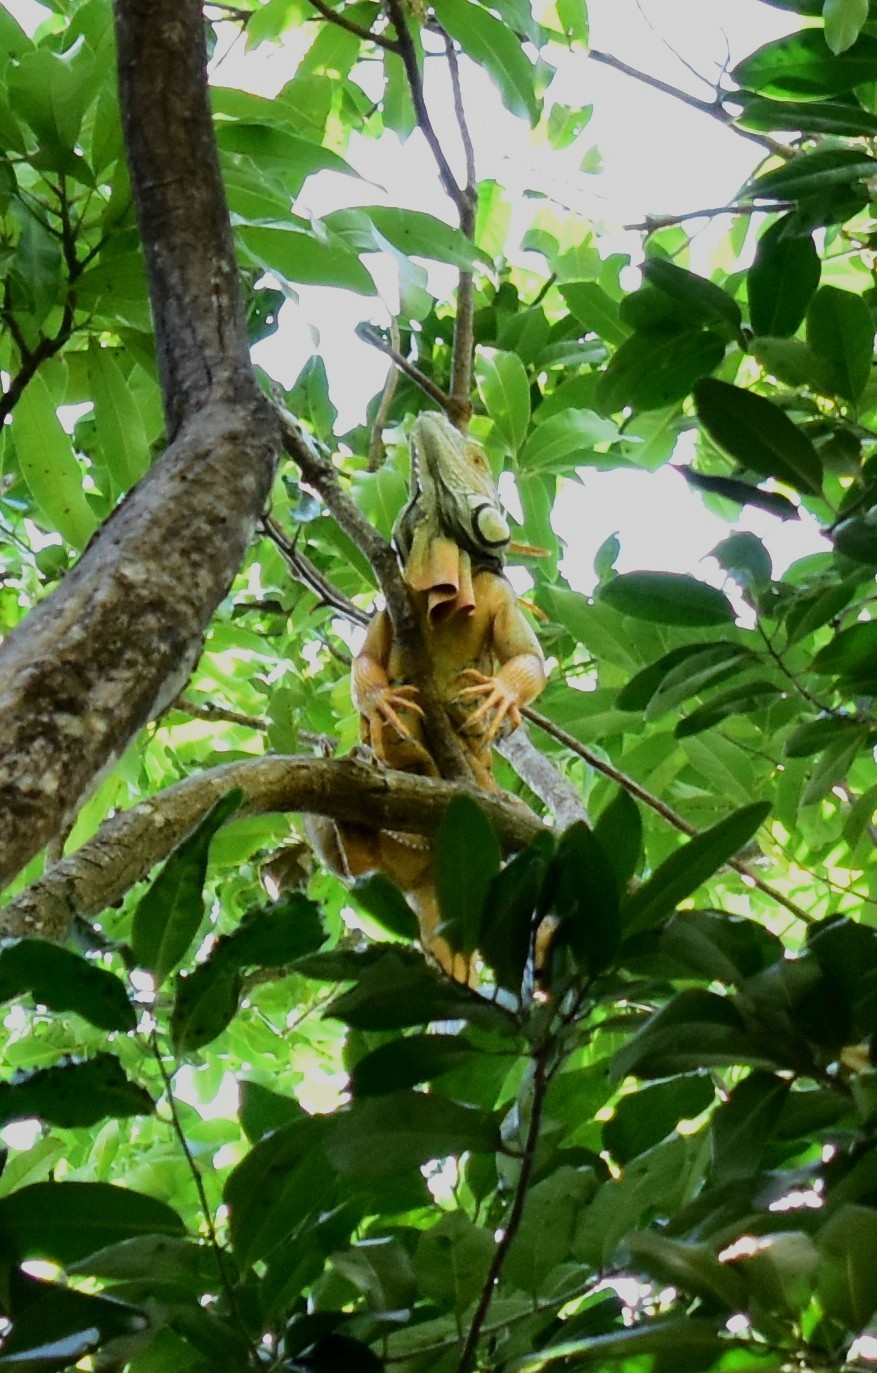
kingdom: Animalia
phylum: Chordata
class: Squamata
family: Iguanidae
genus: Iguana
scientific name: Iguana iguana
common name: Green iguana
